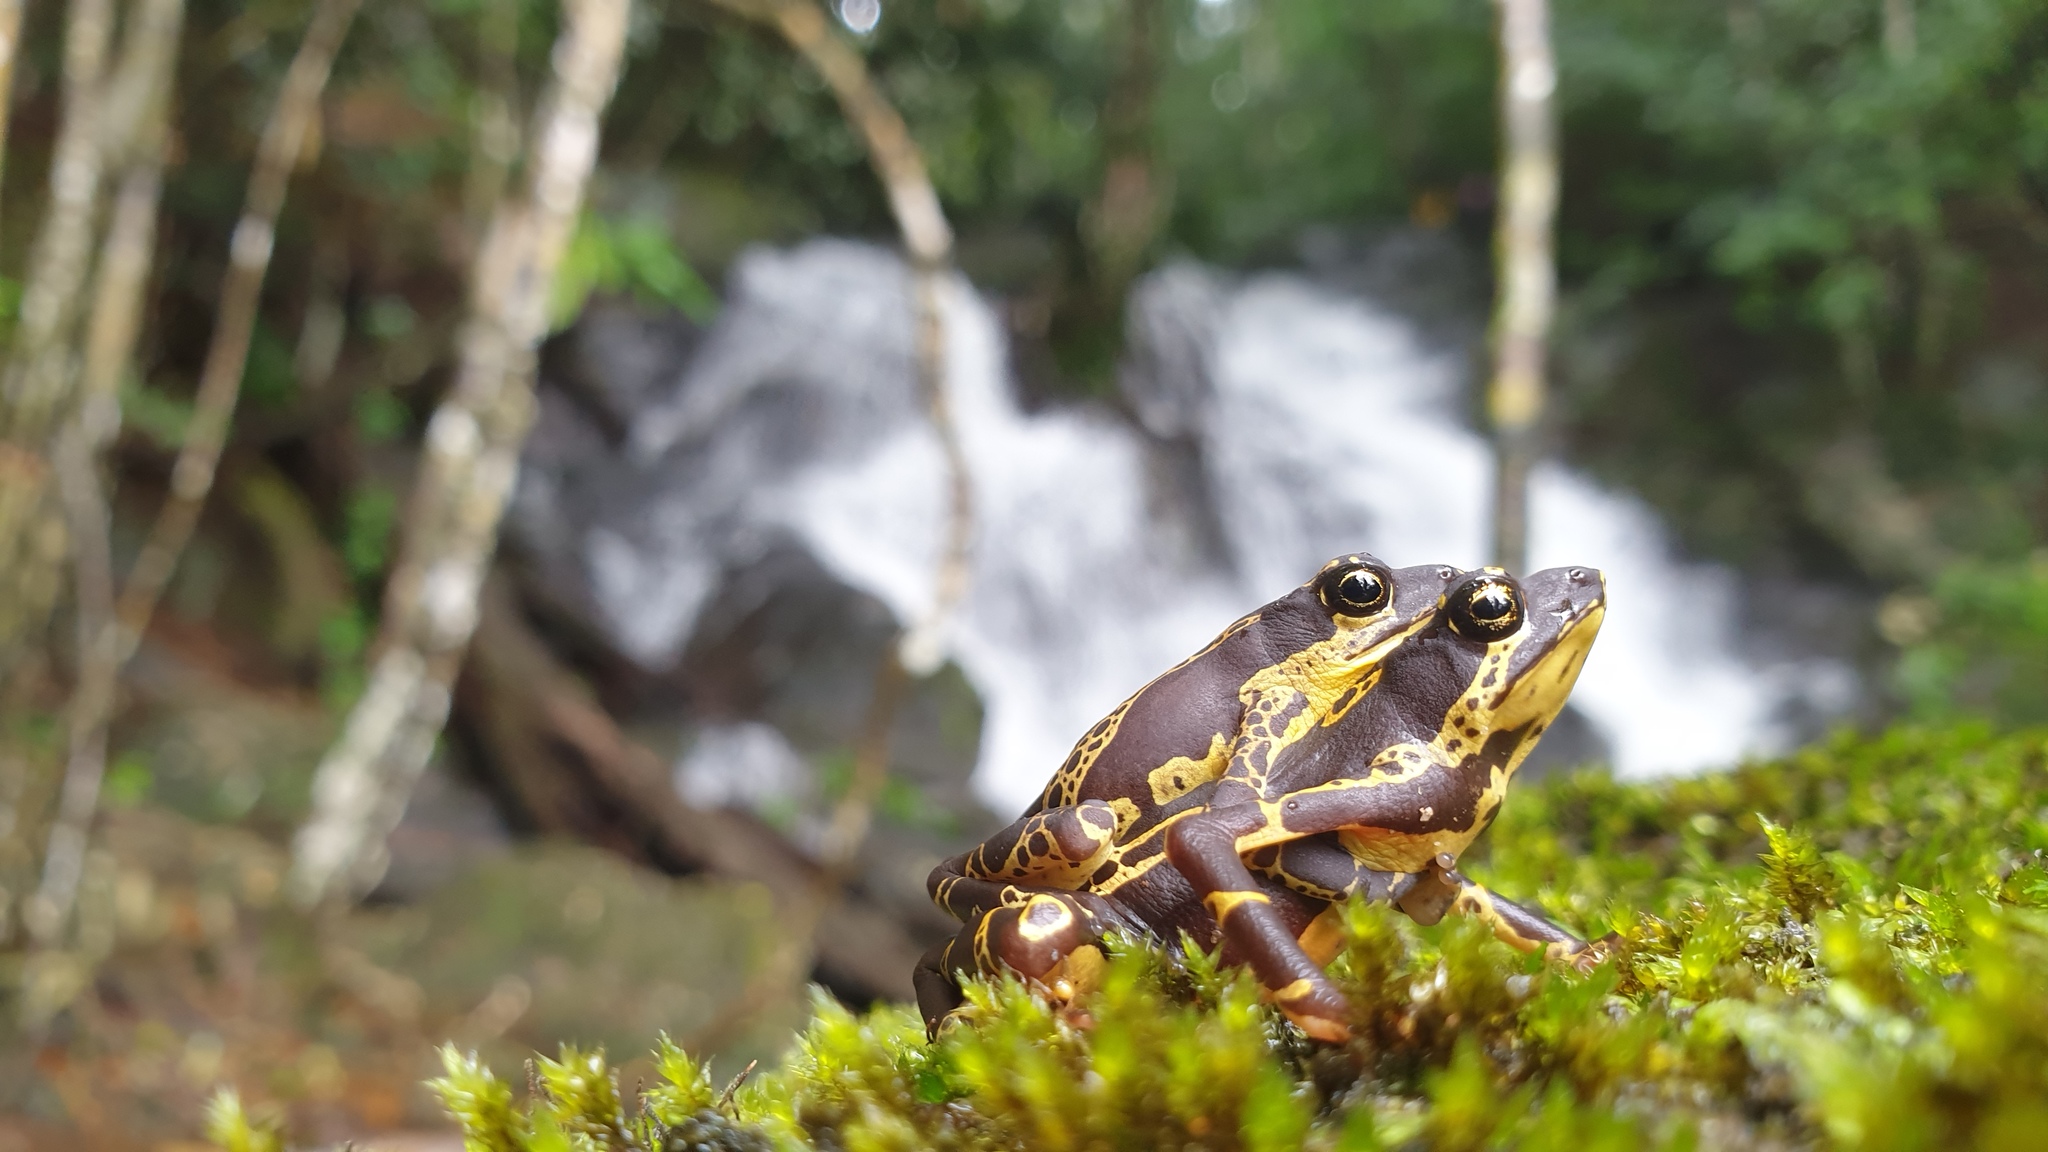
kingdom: Animalia
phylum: Chordata
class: Amphibia
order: Anura
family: Bufonidae
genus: Atelopus
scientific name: Atelopus hoogmoedi
